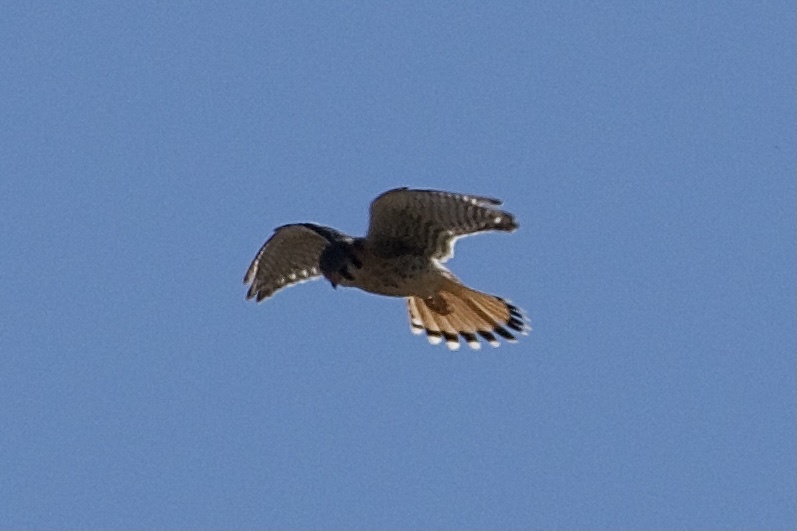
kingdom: Animalia
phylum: Chordata
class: Aves
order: Falconiformes
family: Falconidae
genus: Falco
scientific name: Falco sparverius
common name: American kestrel
